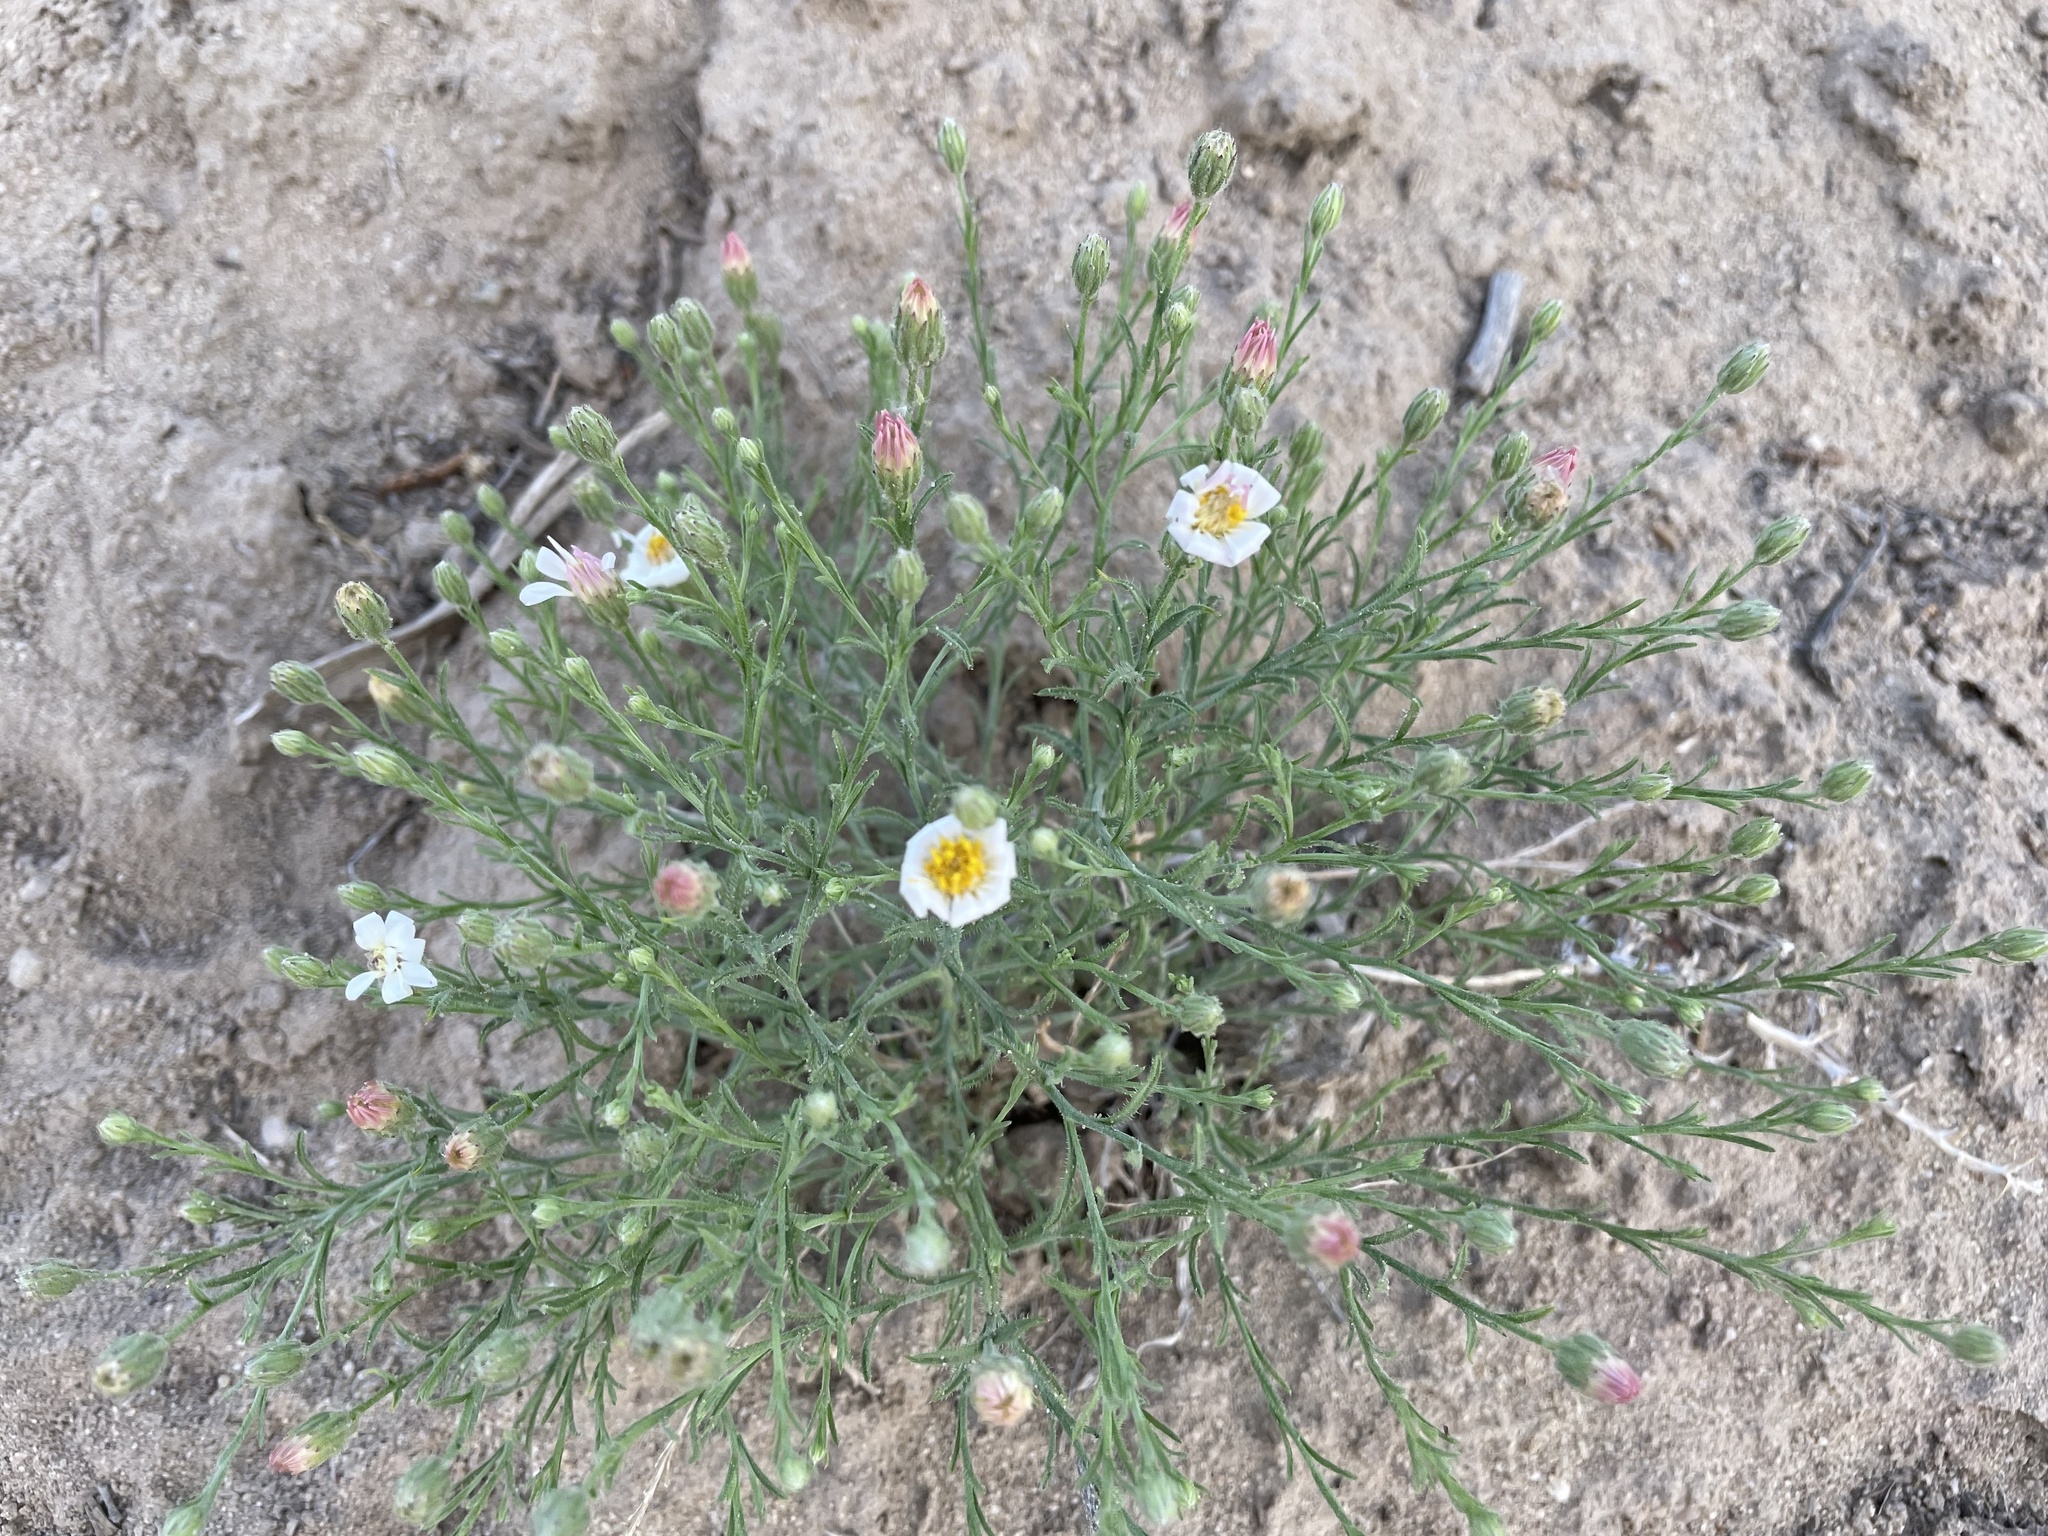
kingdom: Plantae
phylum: Tracheophyta
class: Magnoliopsida
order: Asterales
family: Asteraceae
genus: Chaetopappa
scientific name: Chaetopappa ericoides
